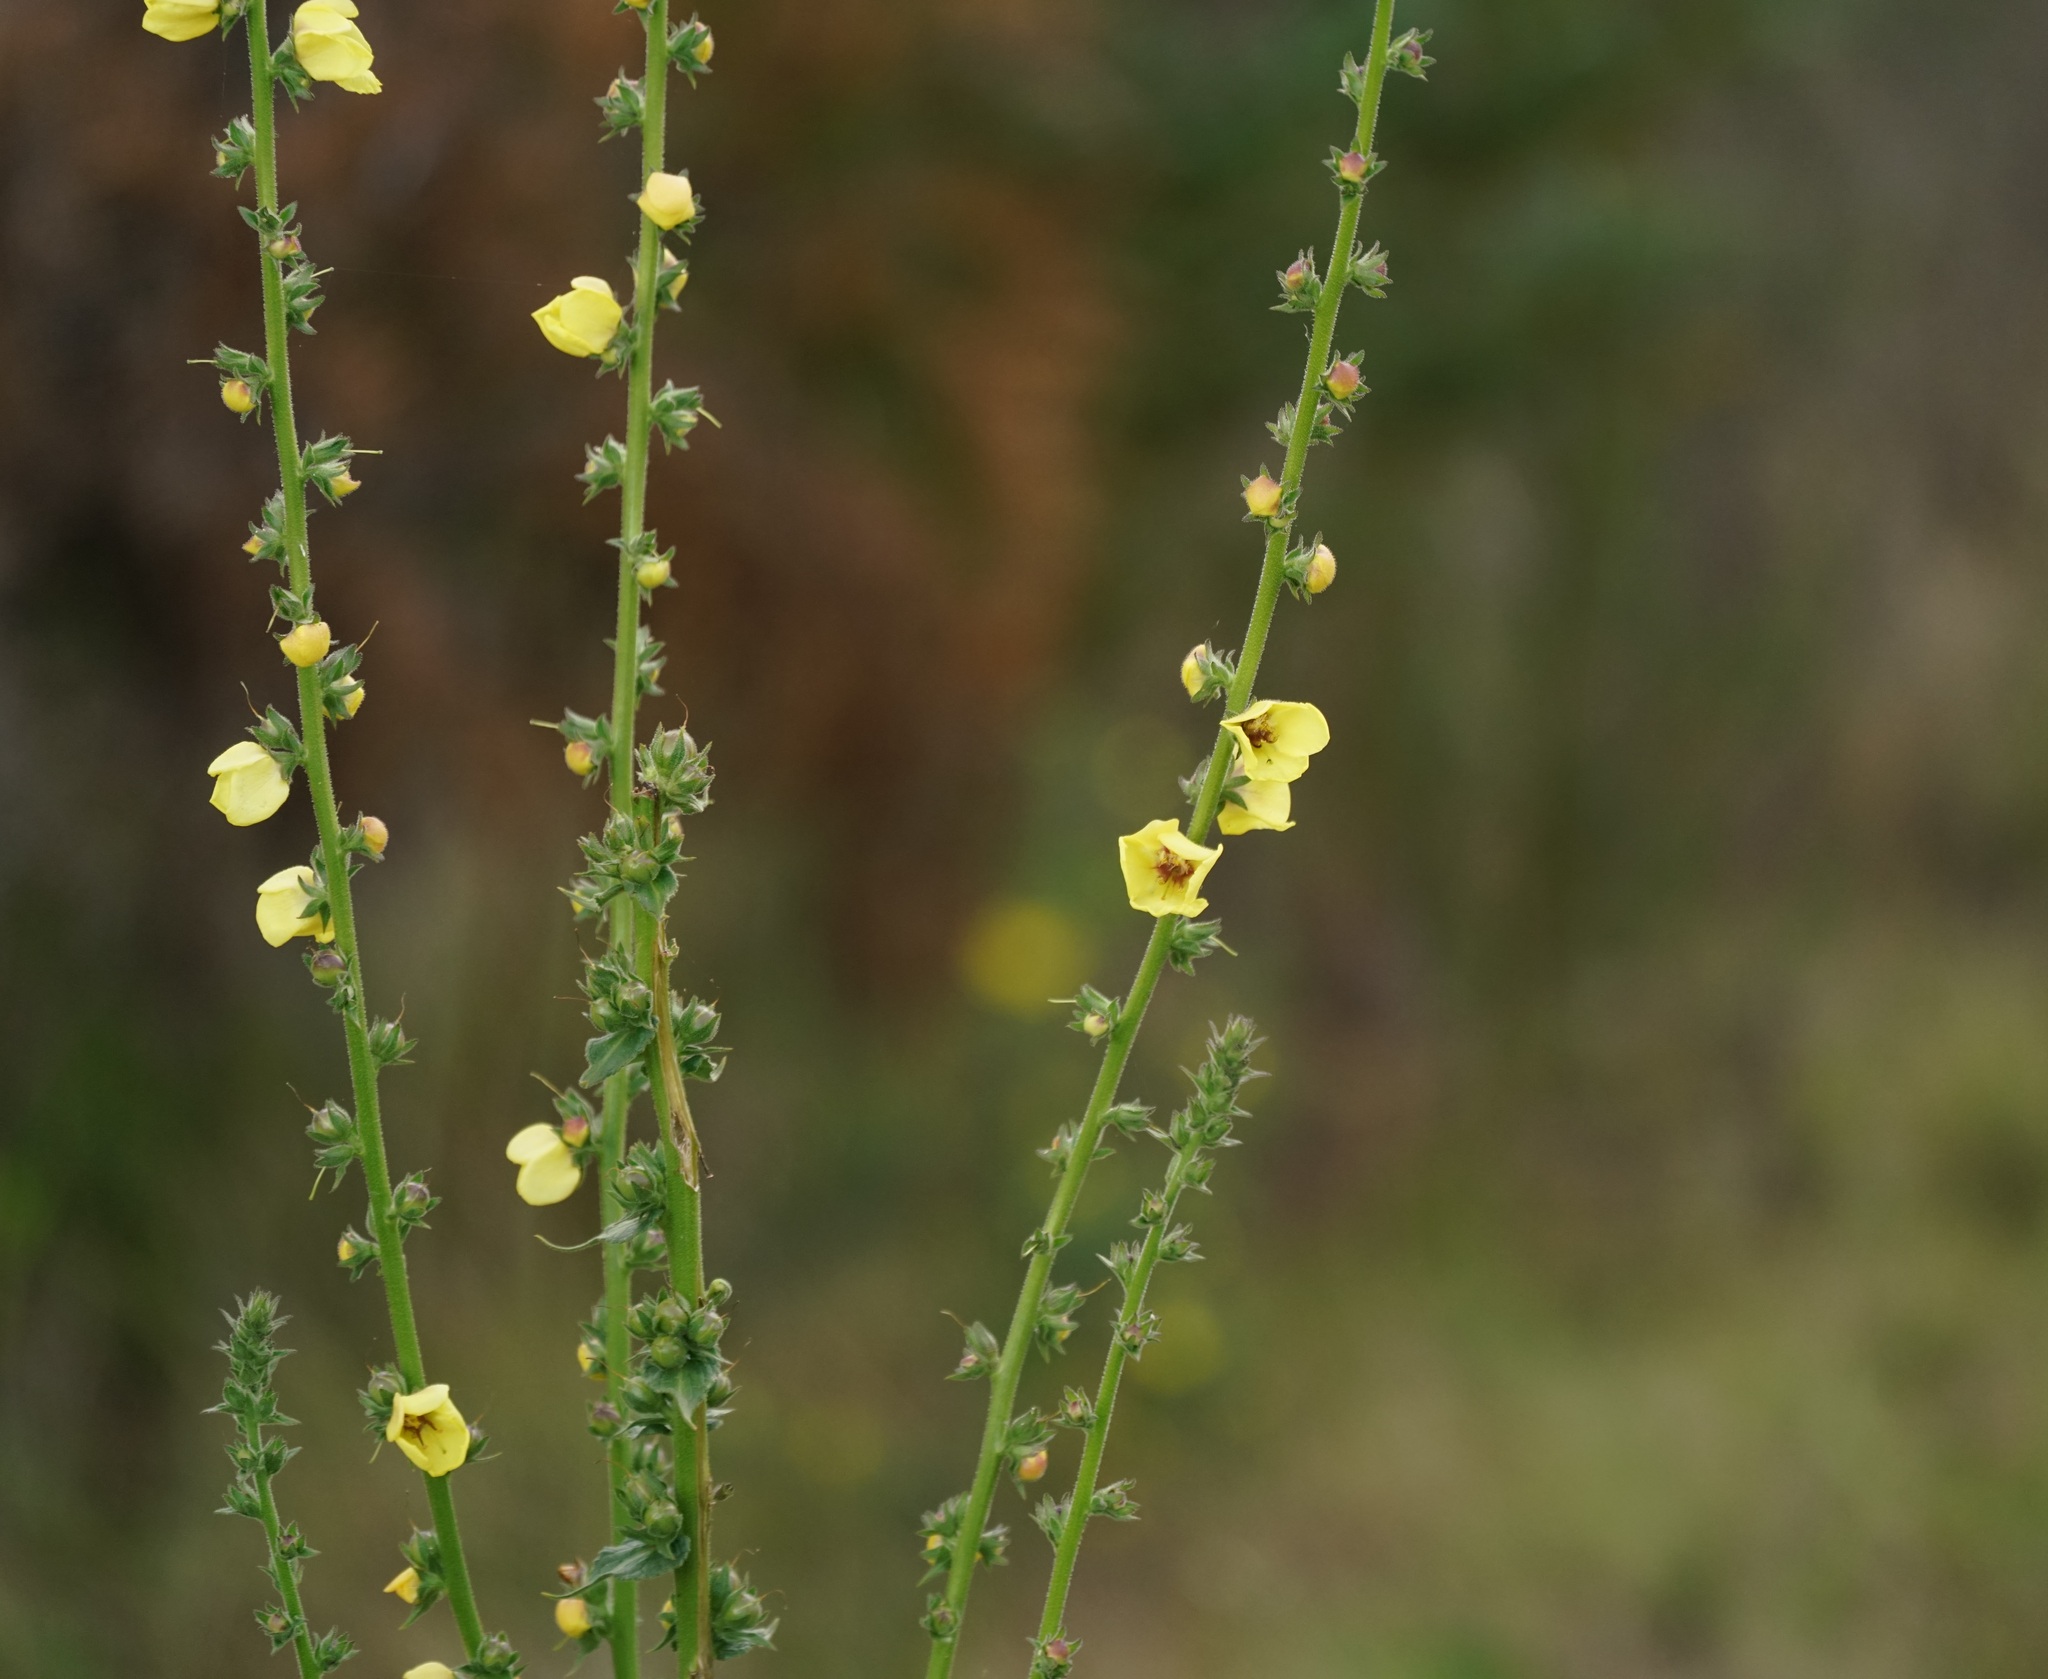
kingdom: Plantae
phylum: Tracheophyta
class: Magnoliopsida
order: Lamiales
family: Scrophulariaceae
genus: Verbascum
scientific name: Verbascum virgatum
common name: Twiggy mullein
